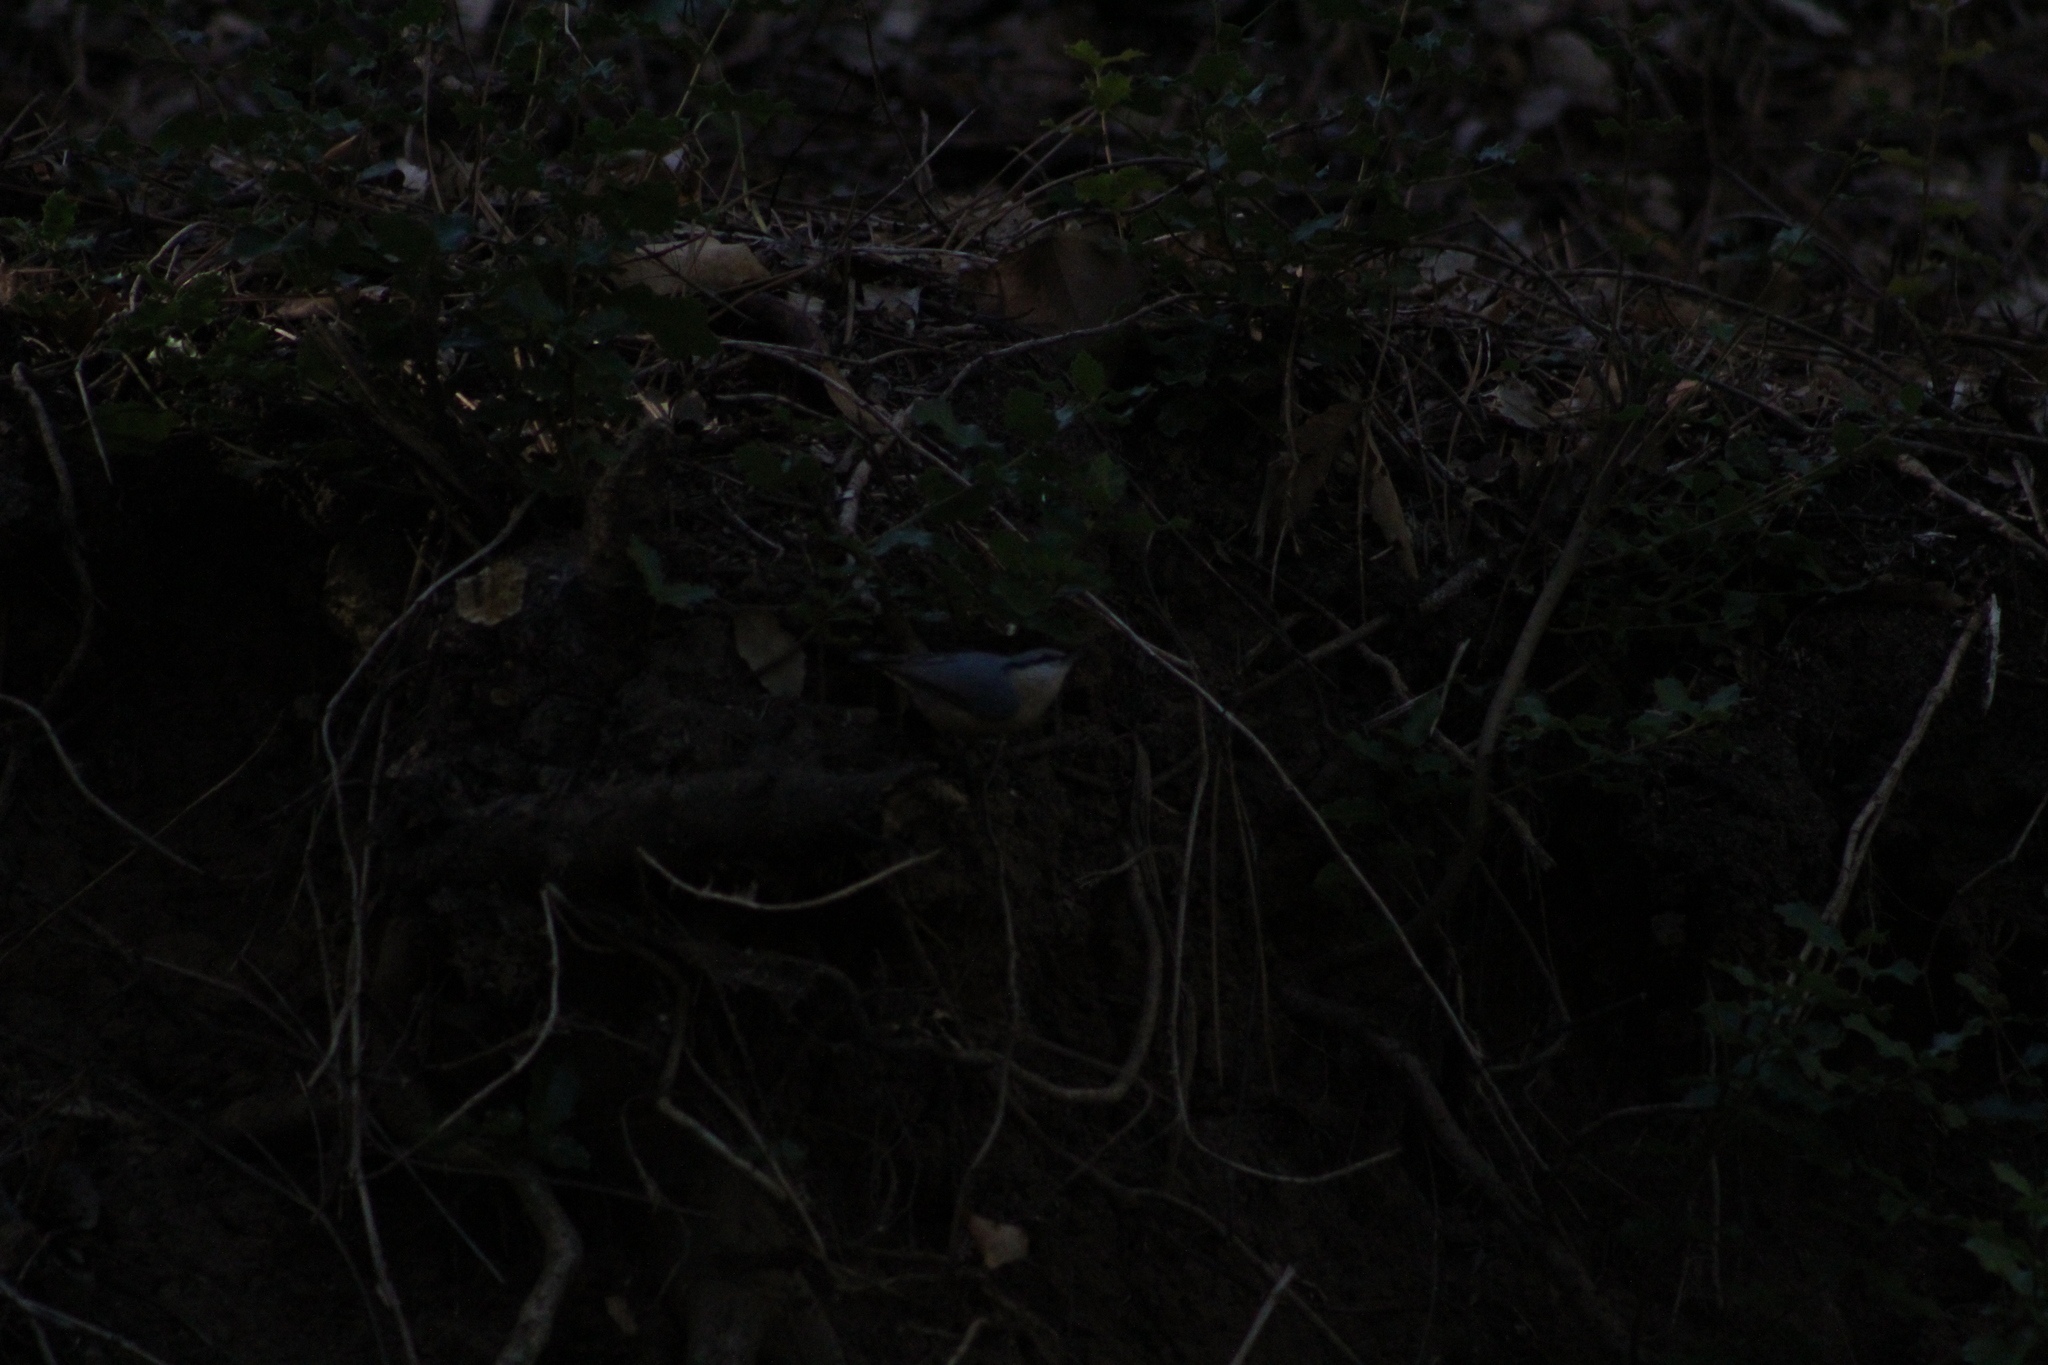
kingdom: Animalia
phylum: Chordata
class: Aves
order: Passeriformes
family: Sittidae
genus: Sitta
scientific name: Sitta europaea
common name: Eurasian nuthatch
